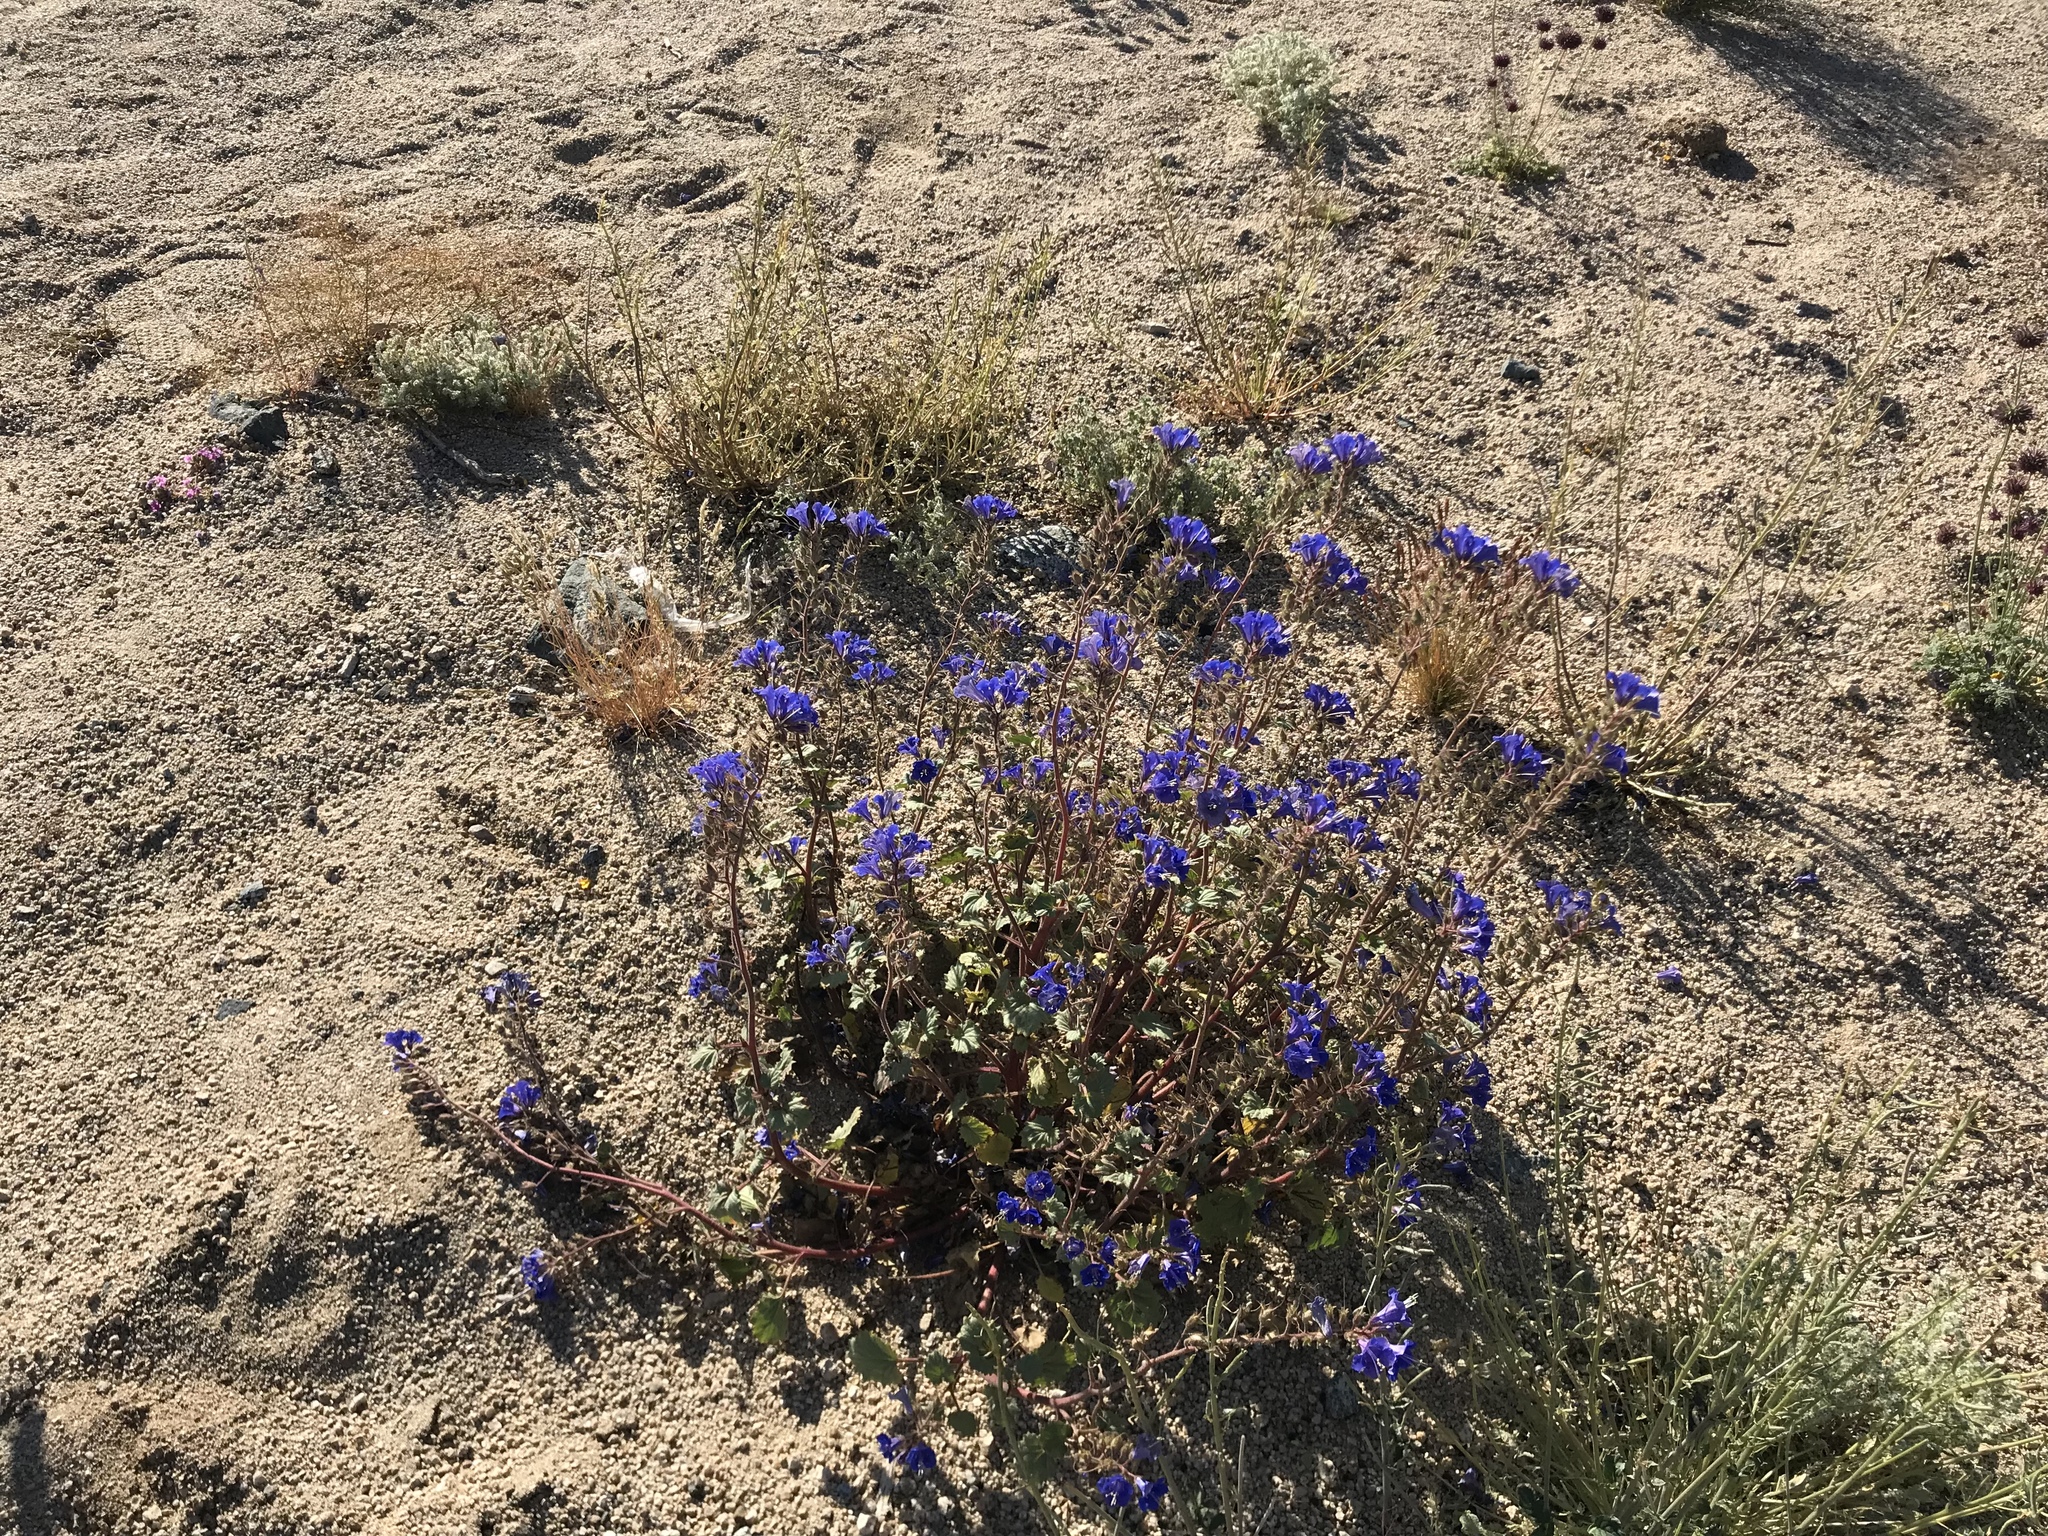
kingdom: Plantae
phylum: Tracheophyta
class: Magnoliopsida
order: Boraginales
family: Hydrophyllaceae
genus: Phacelia
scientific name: Phacelia campanularia
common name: California bluebell
